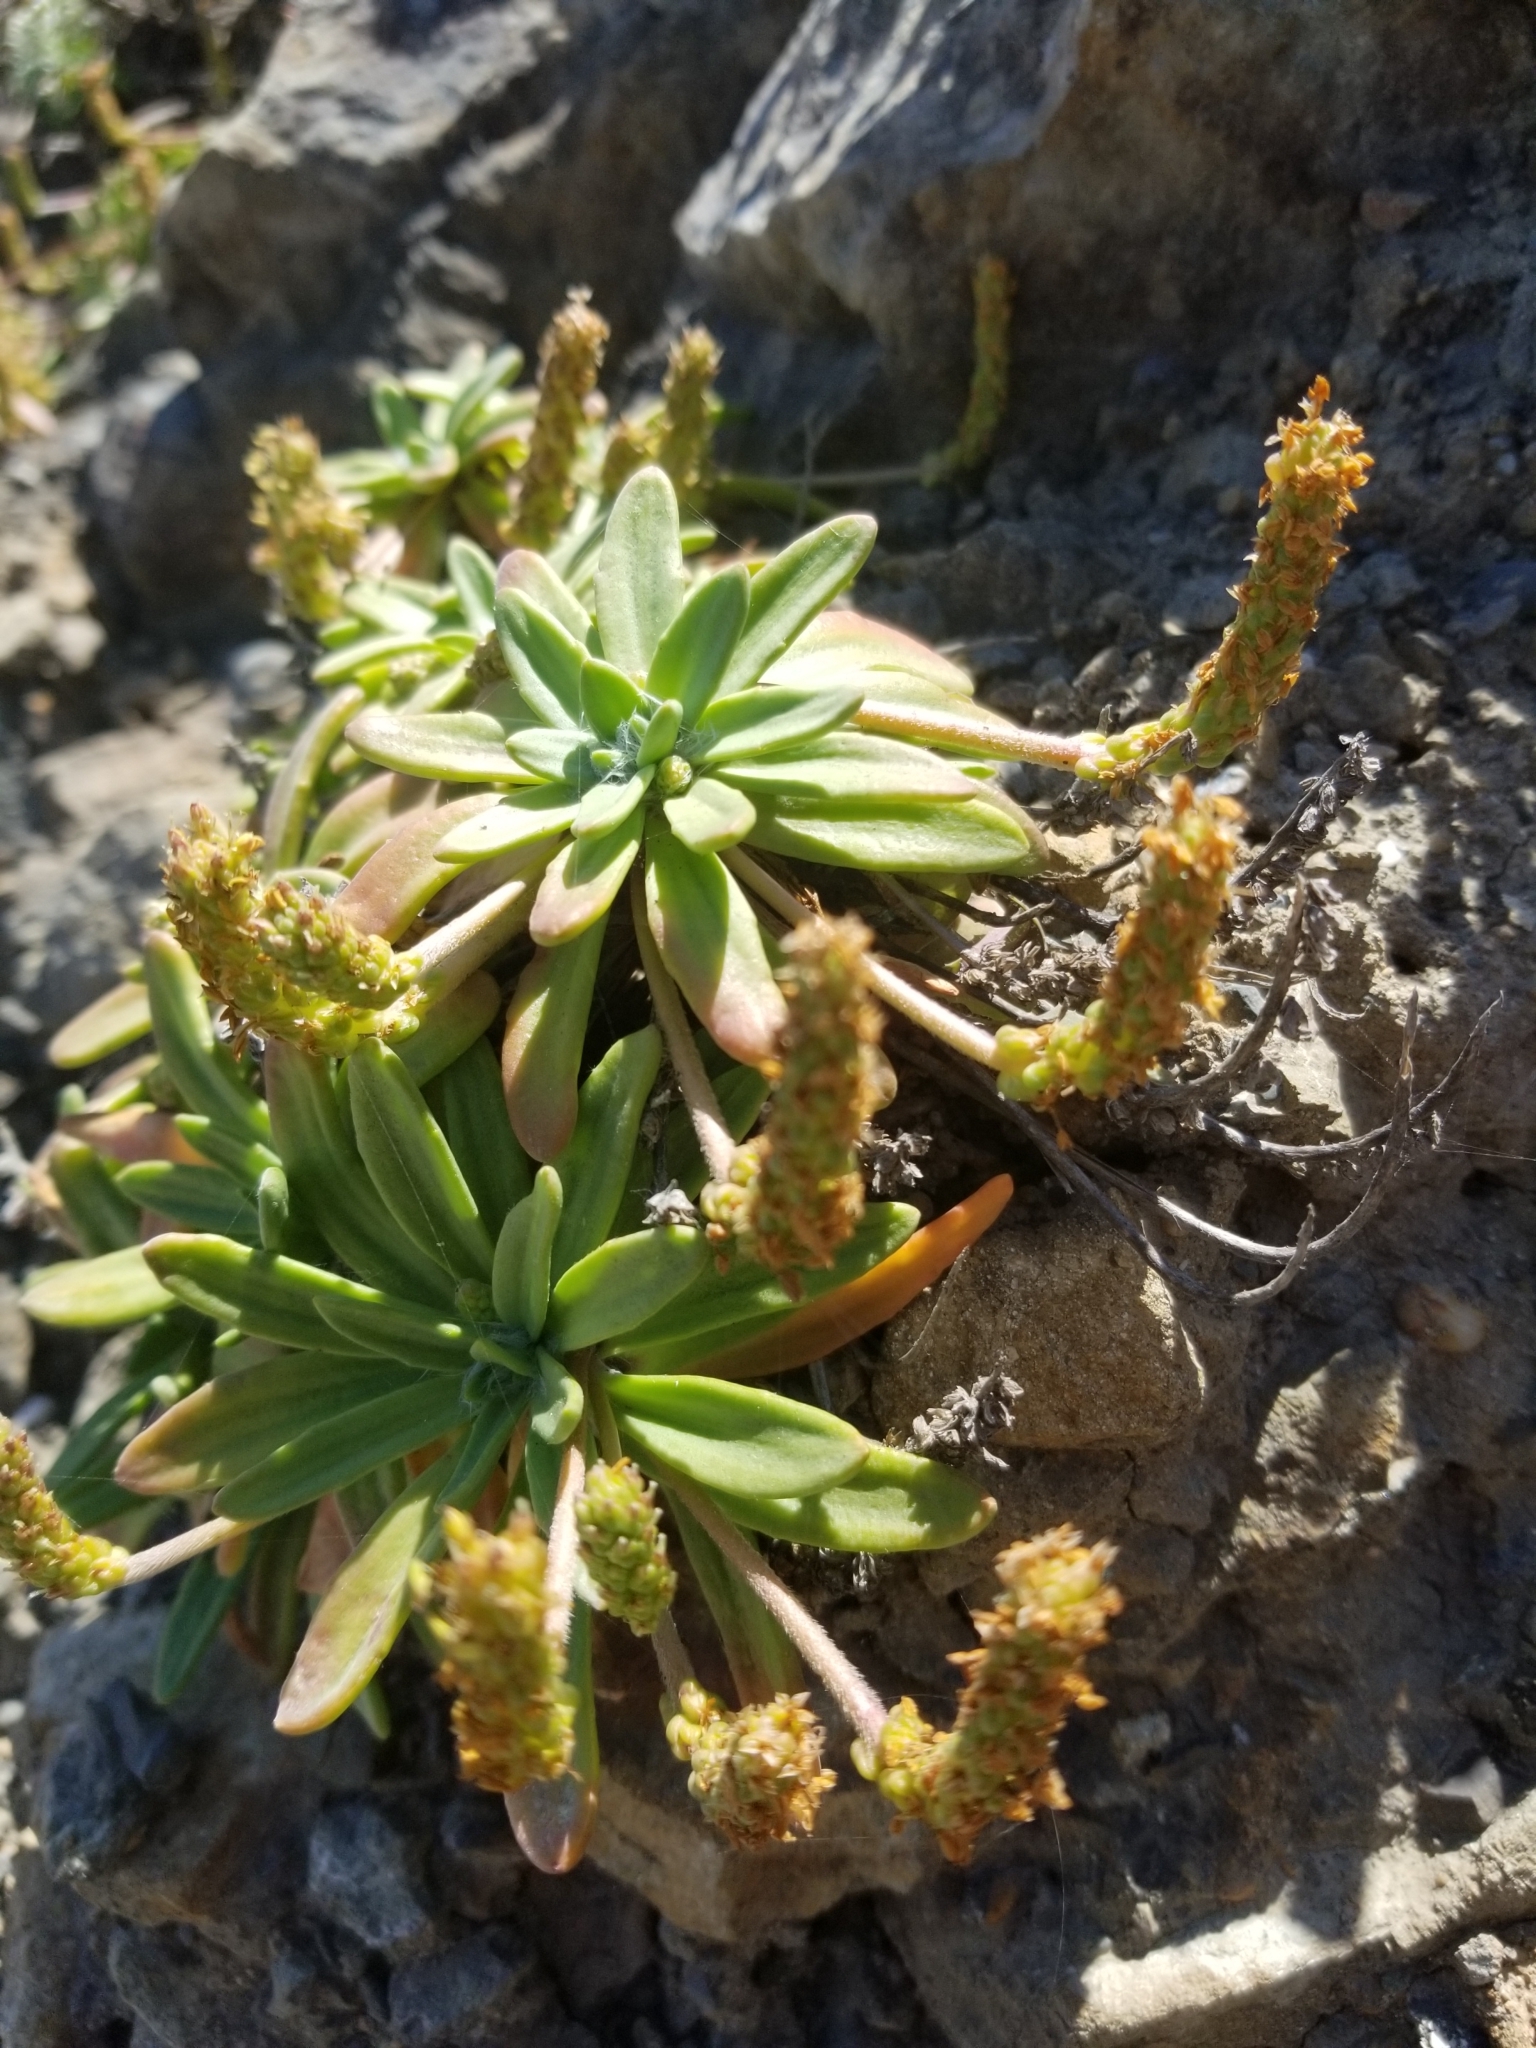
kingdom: Plantae
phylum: Tracheophyta
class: Magnoliopsida
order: Lamiales
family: Plantaginaceae
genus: Plantago
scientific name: Plantago maritima
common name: Sea plantain
